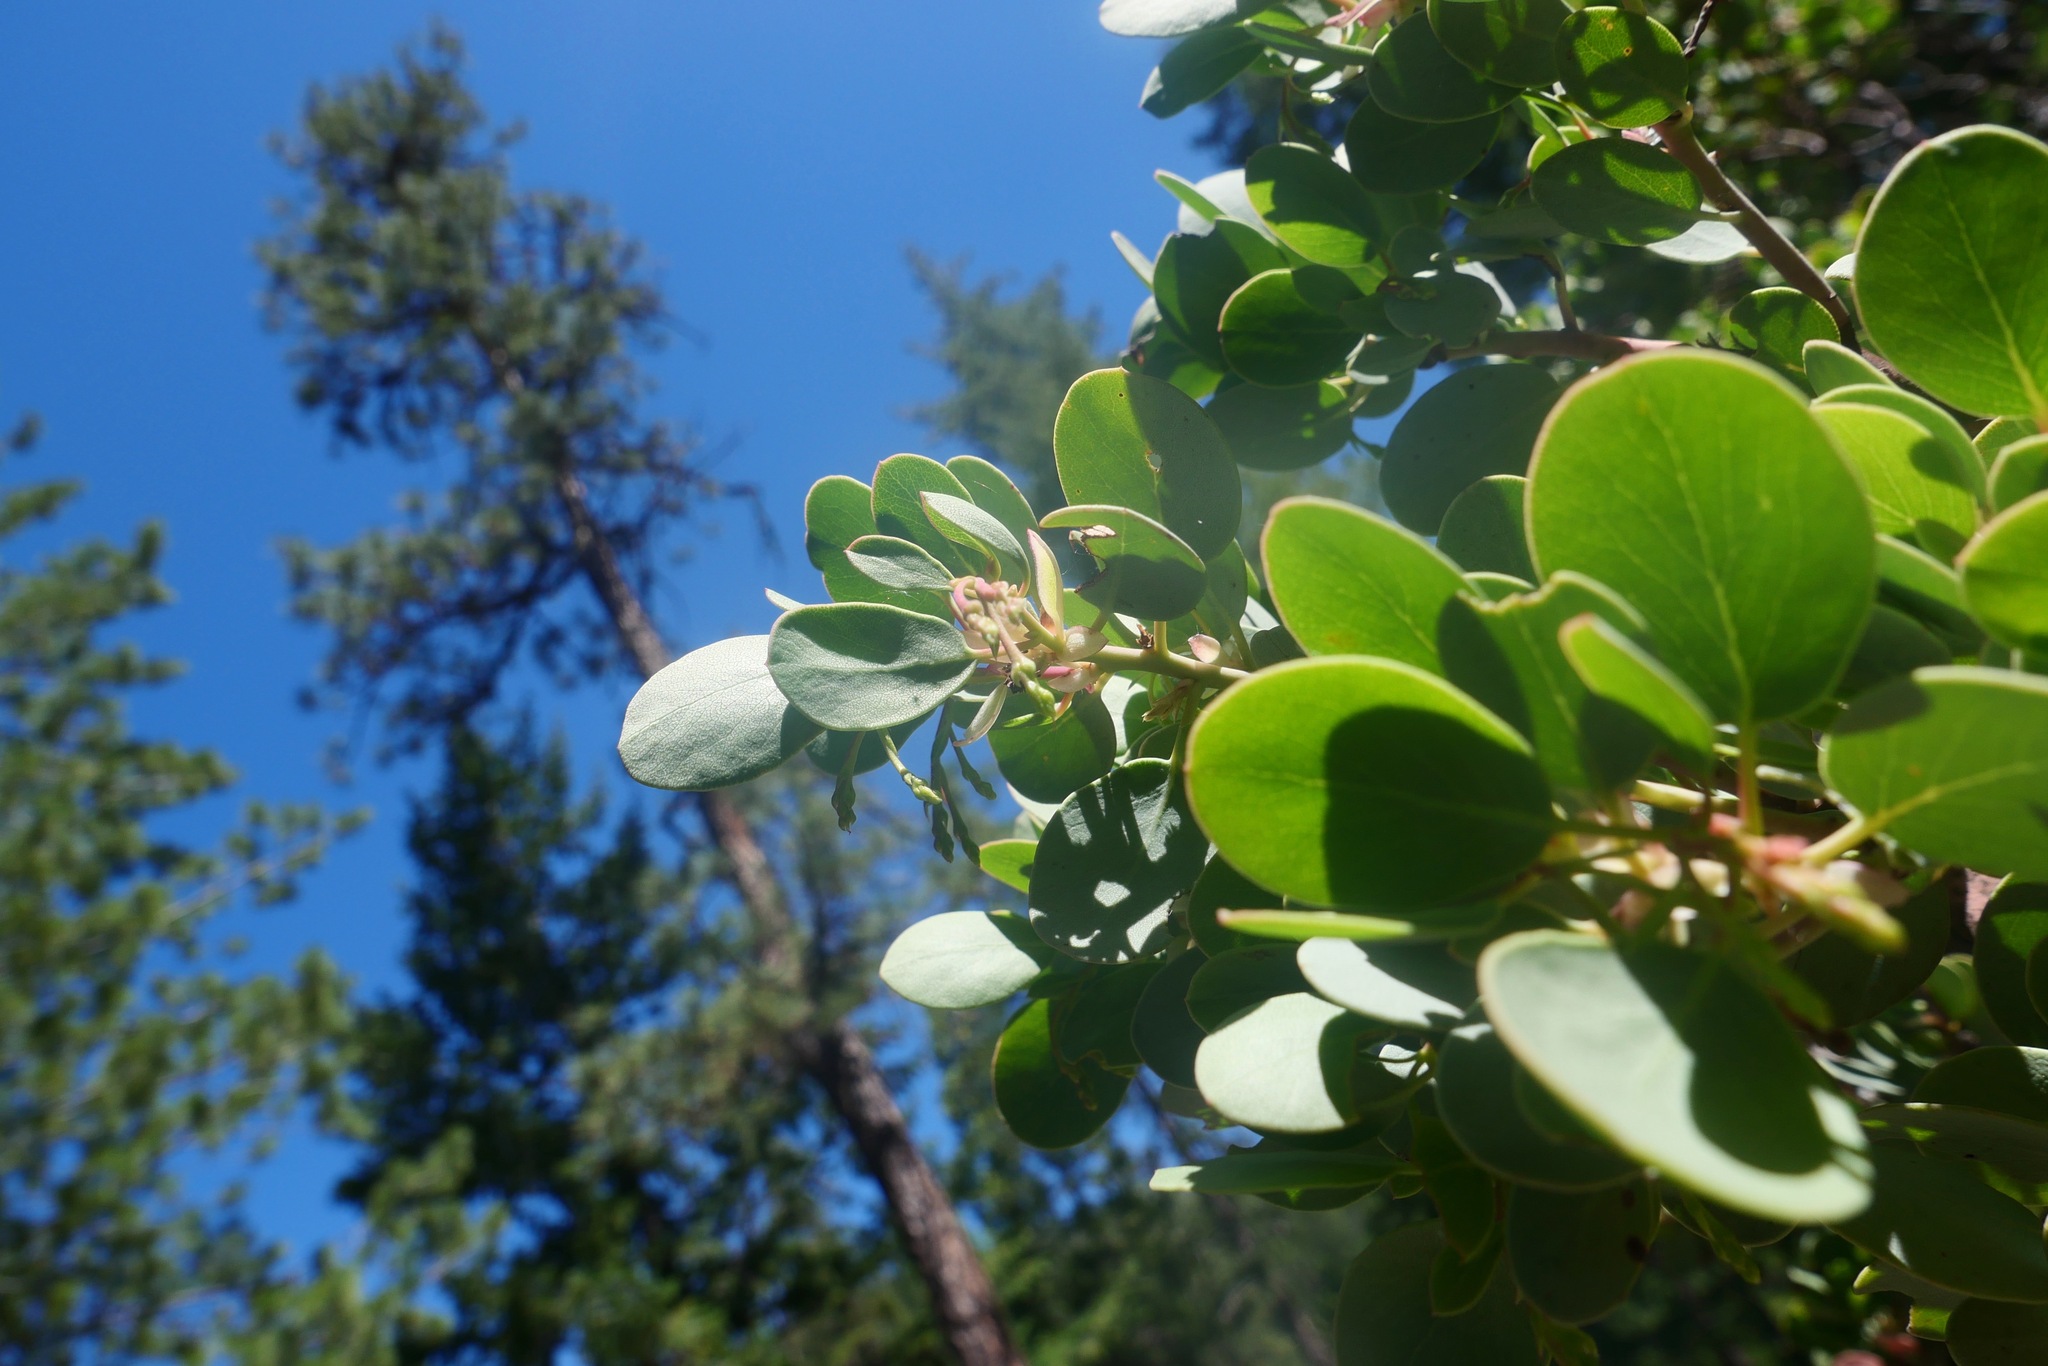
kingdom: Plantae
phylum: Tracheophyta
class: Magnoliopsida
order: Ericales
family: Ericaceae
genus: Arctostaphylos
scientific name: Arctostaphylos viscida
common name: White-leaf manzanita
